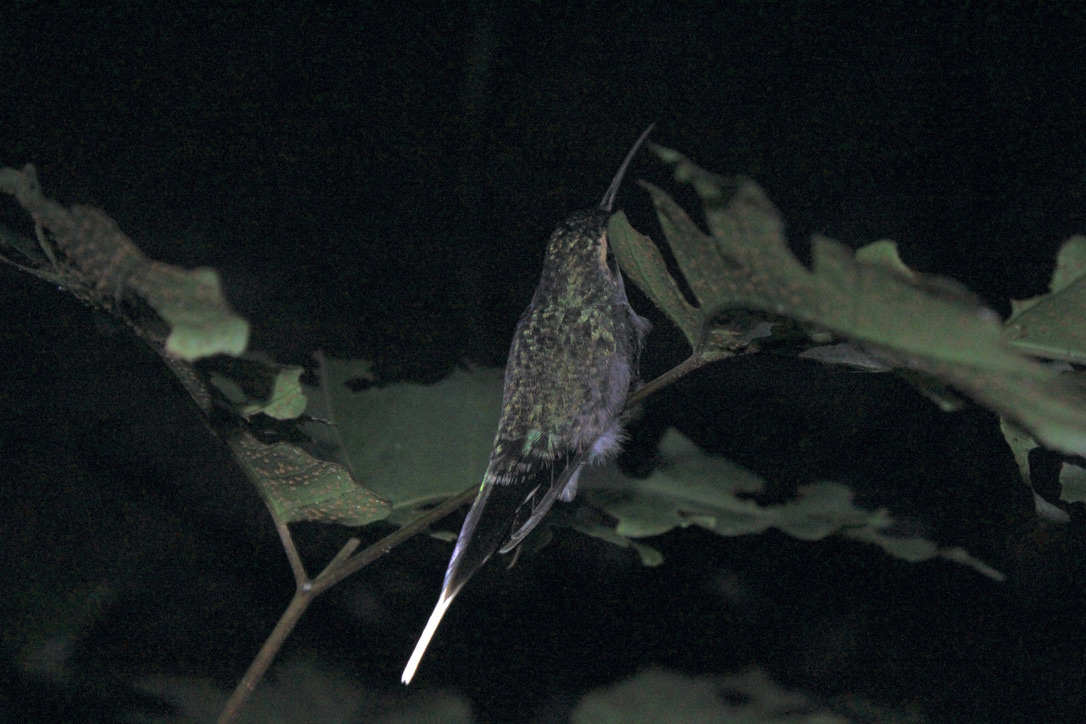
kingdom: Animalia
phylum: Chordata
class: Aves
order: Apodiformes
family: Trochilidae
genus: Phaethornis
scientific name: Phaethornis guy
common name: Green hermit
